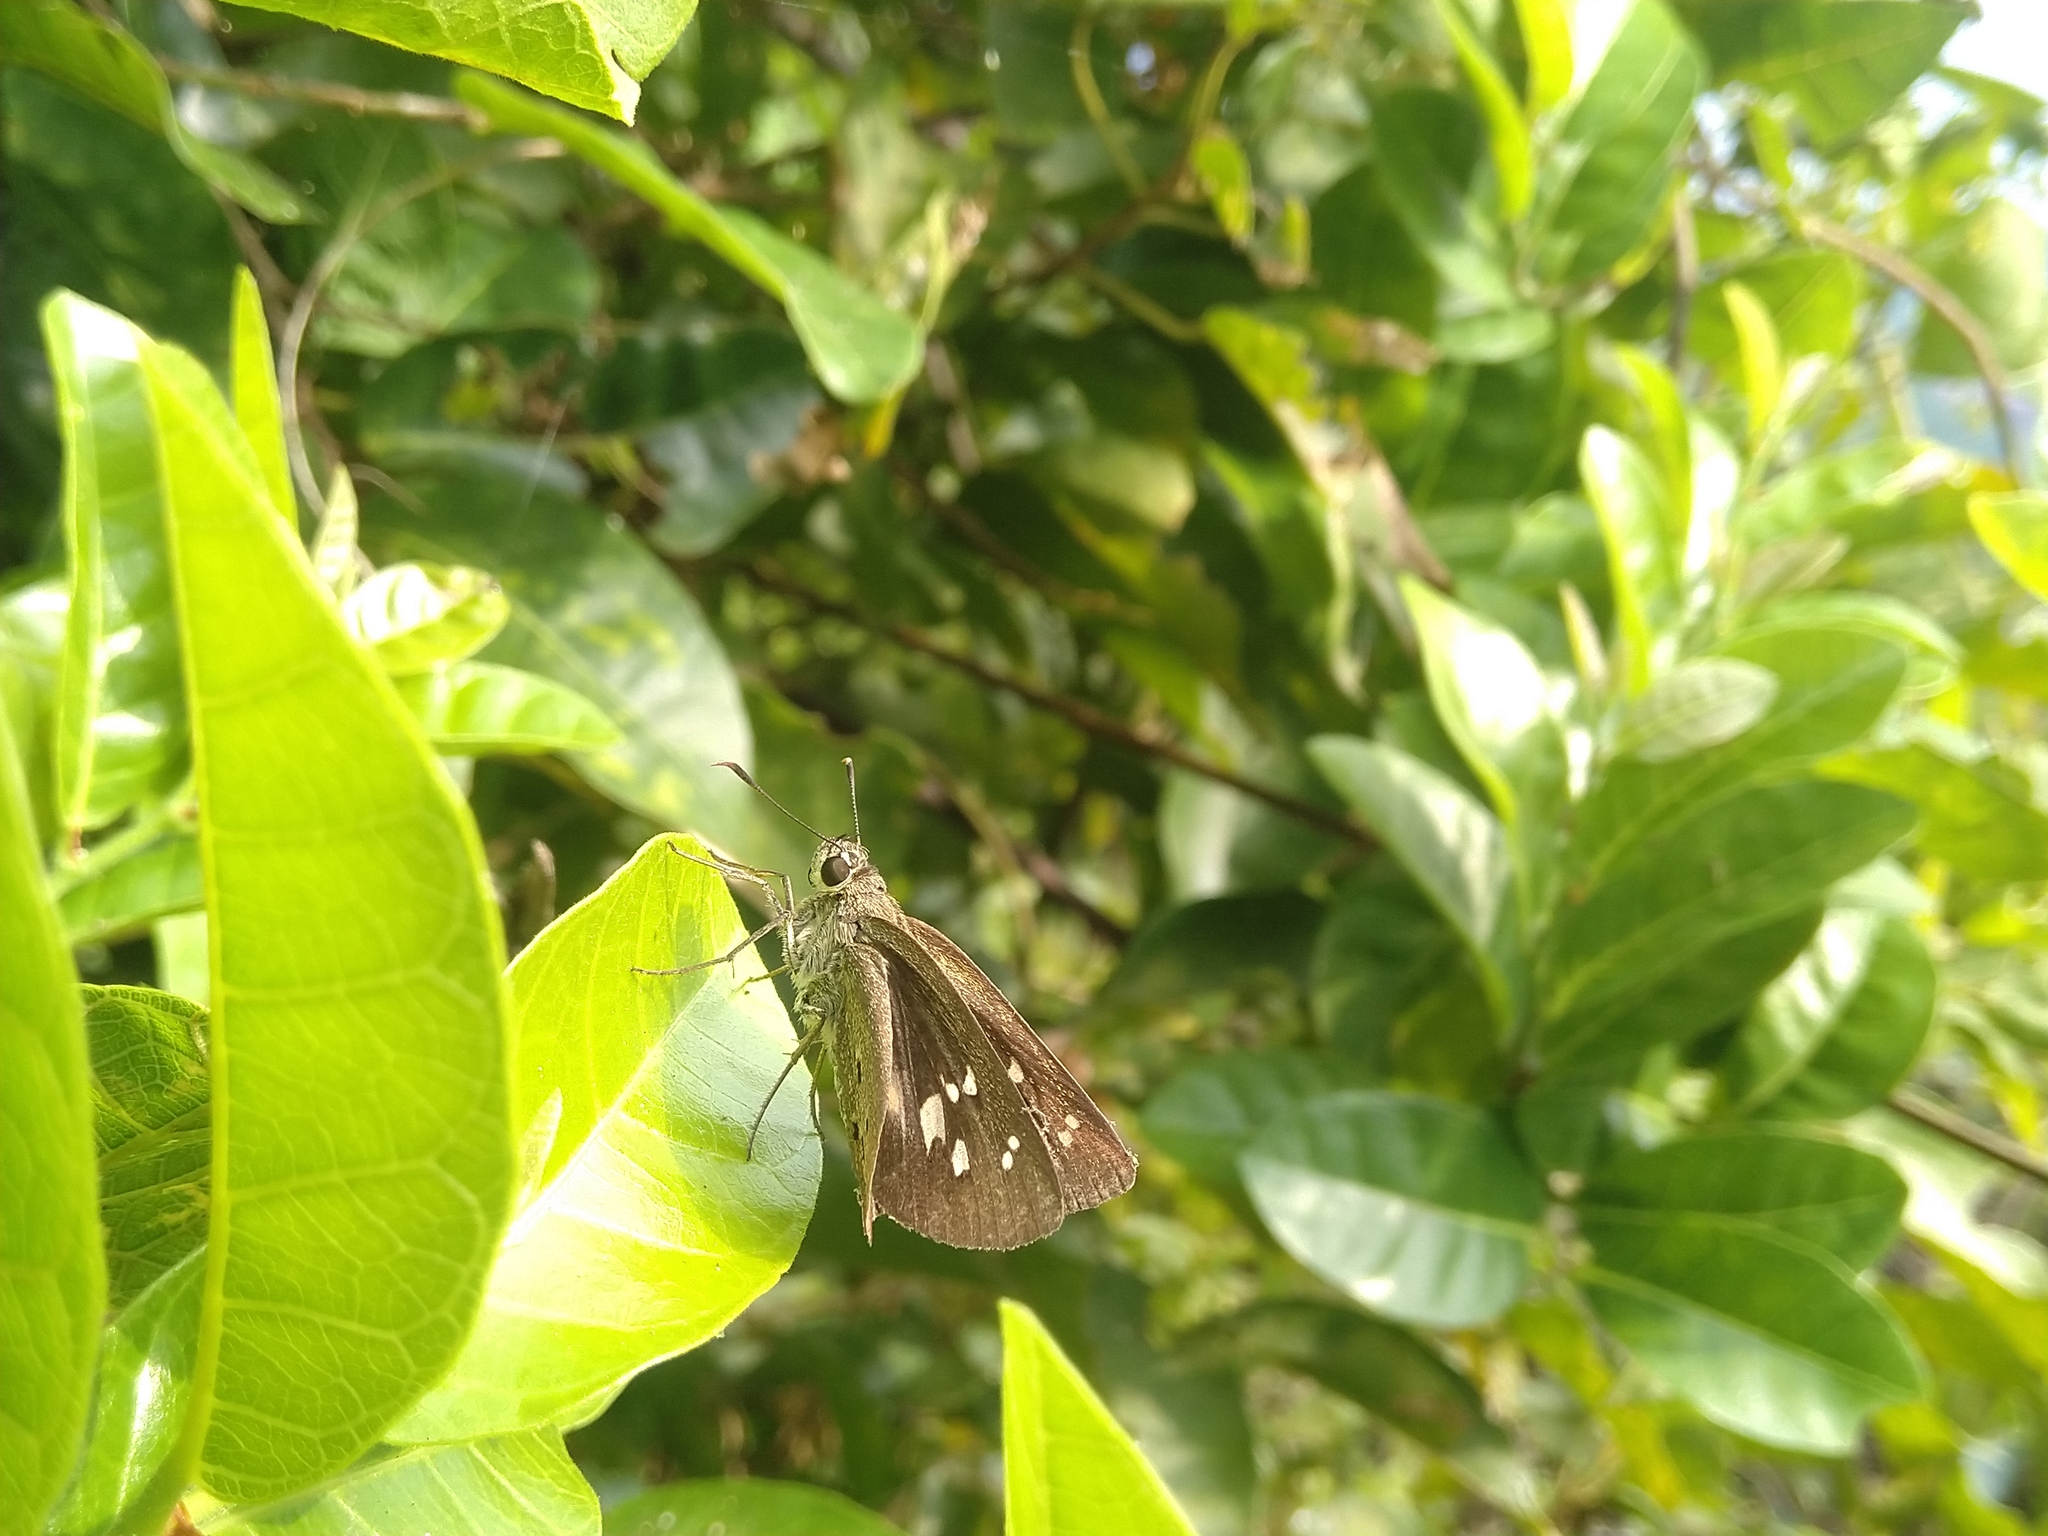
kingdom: Animalia
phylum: Arthropoda
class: Insecta
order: Lepidoptera
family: Hesperiidae
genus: Suastus
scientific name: Suastus gremius
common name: Indian palm bob
